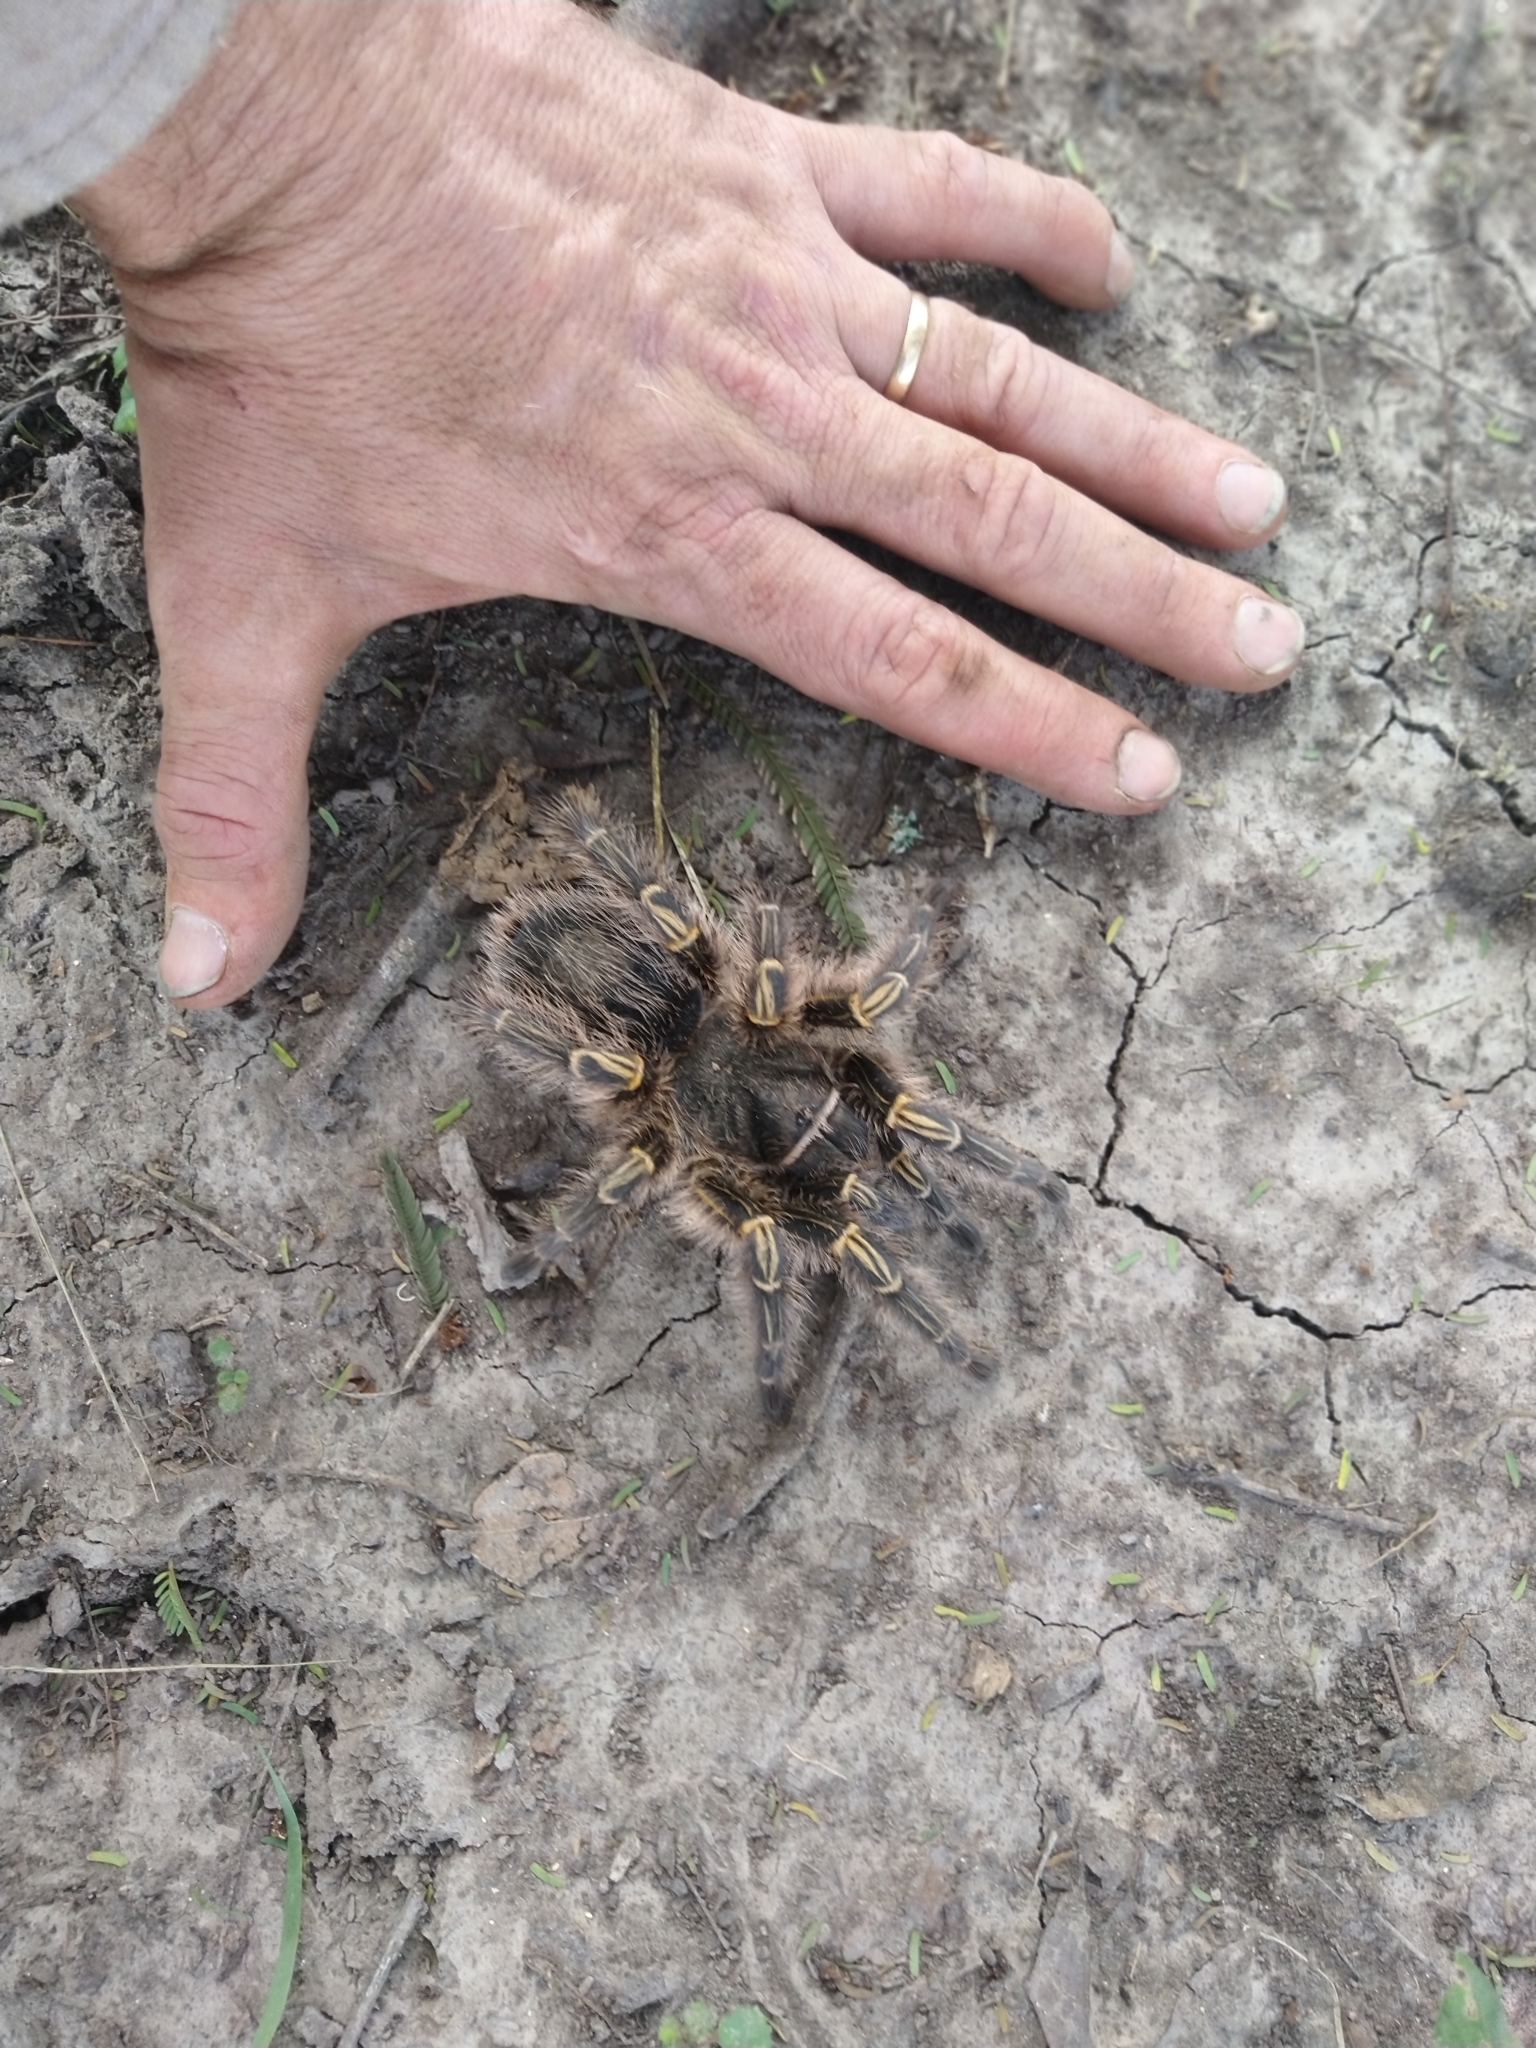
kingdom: Animalia
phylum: Arthropoda
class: Arachnida
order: Araneae
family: Theraphosidae
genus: Grammostola
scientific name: Grammostola pulchripes
